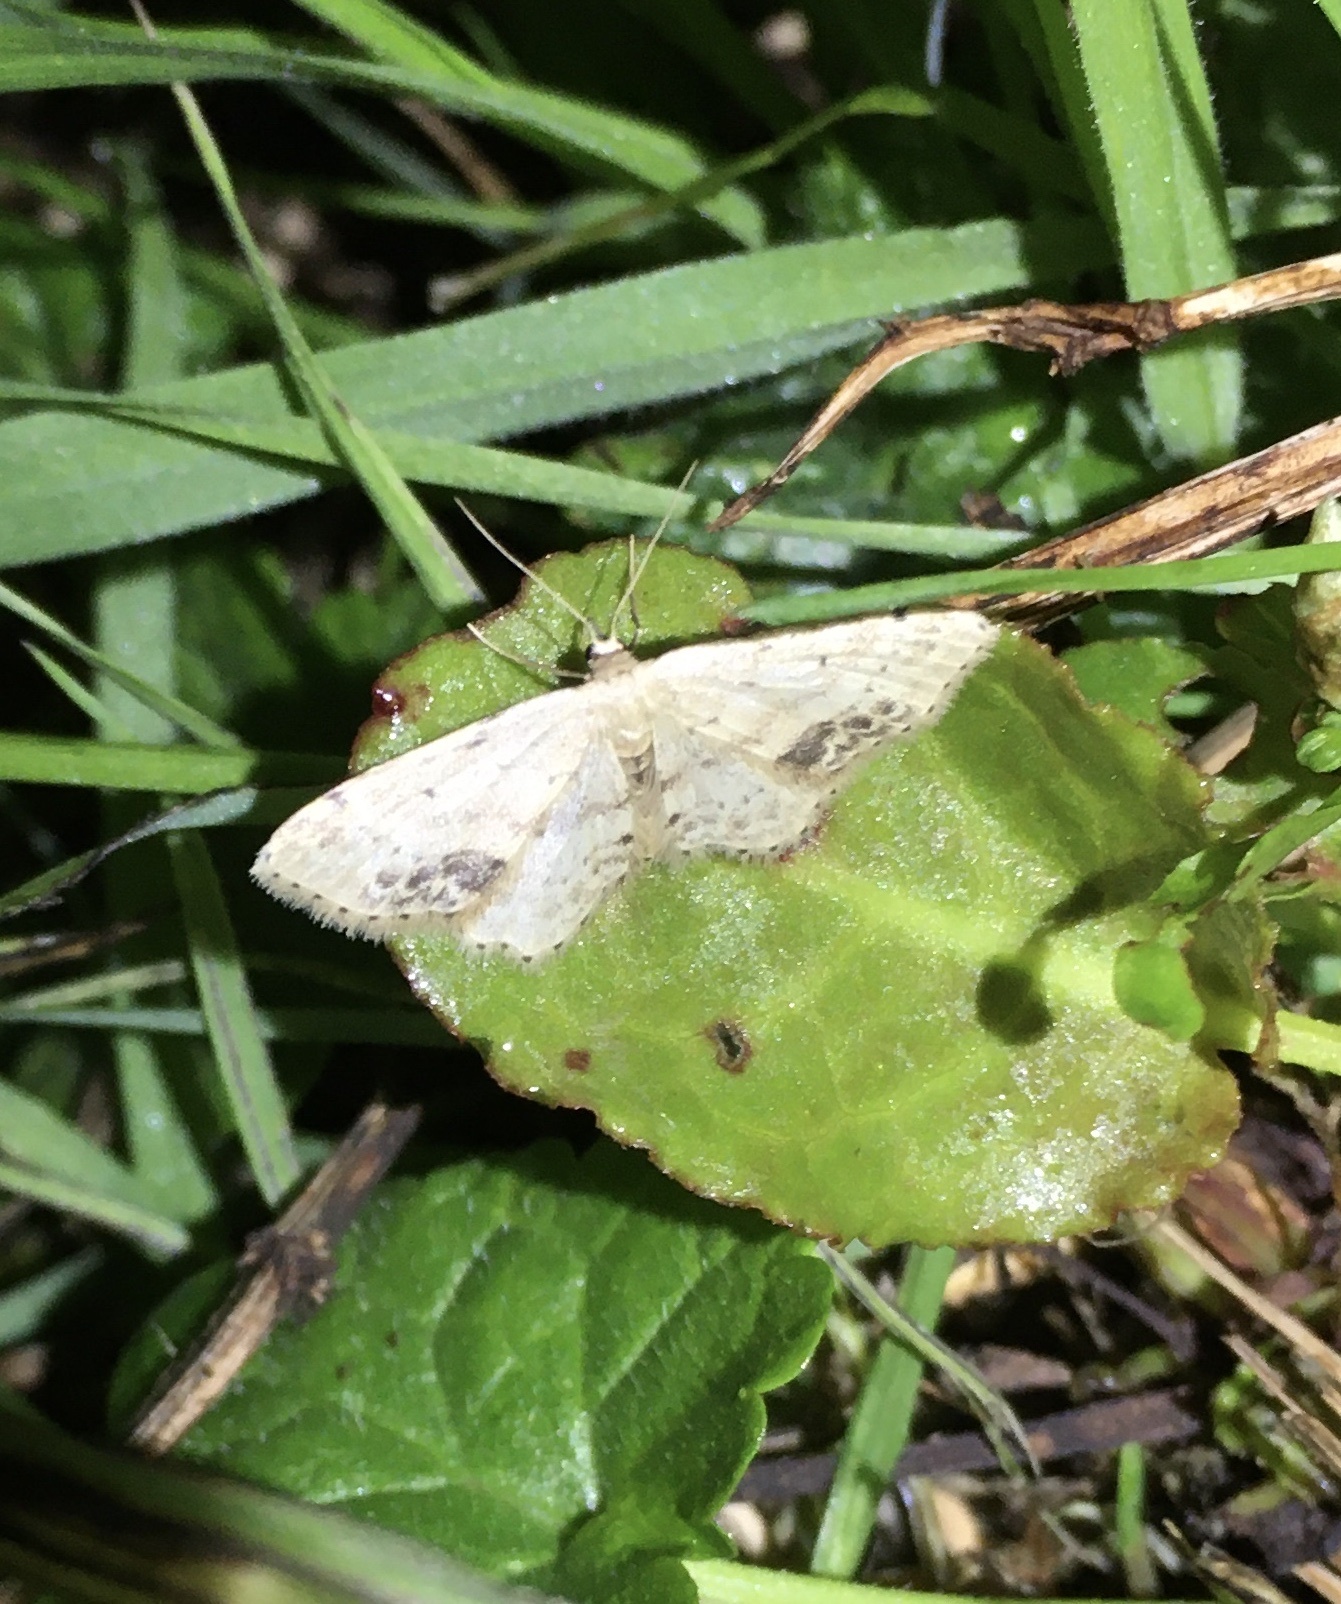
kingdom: Animalia
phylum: Arthropoda
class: Insecta
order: Lepidoptera
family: Geometridae
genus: Idaea
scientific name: Idaea dimidiata
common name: Single-dotted wave
